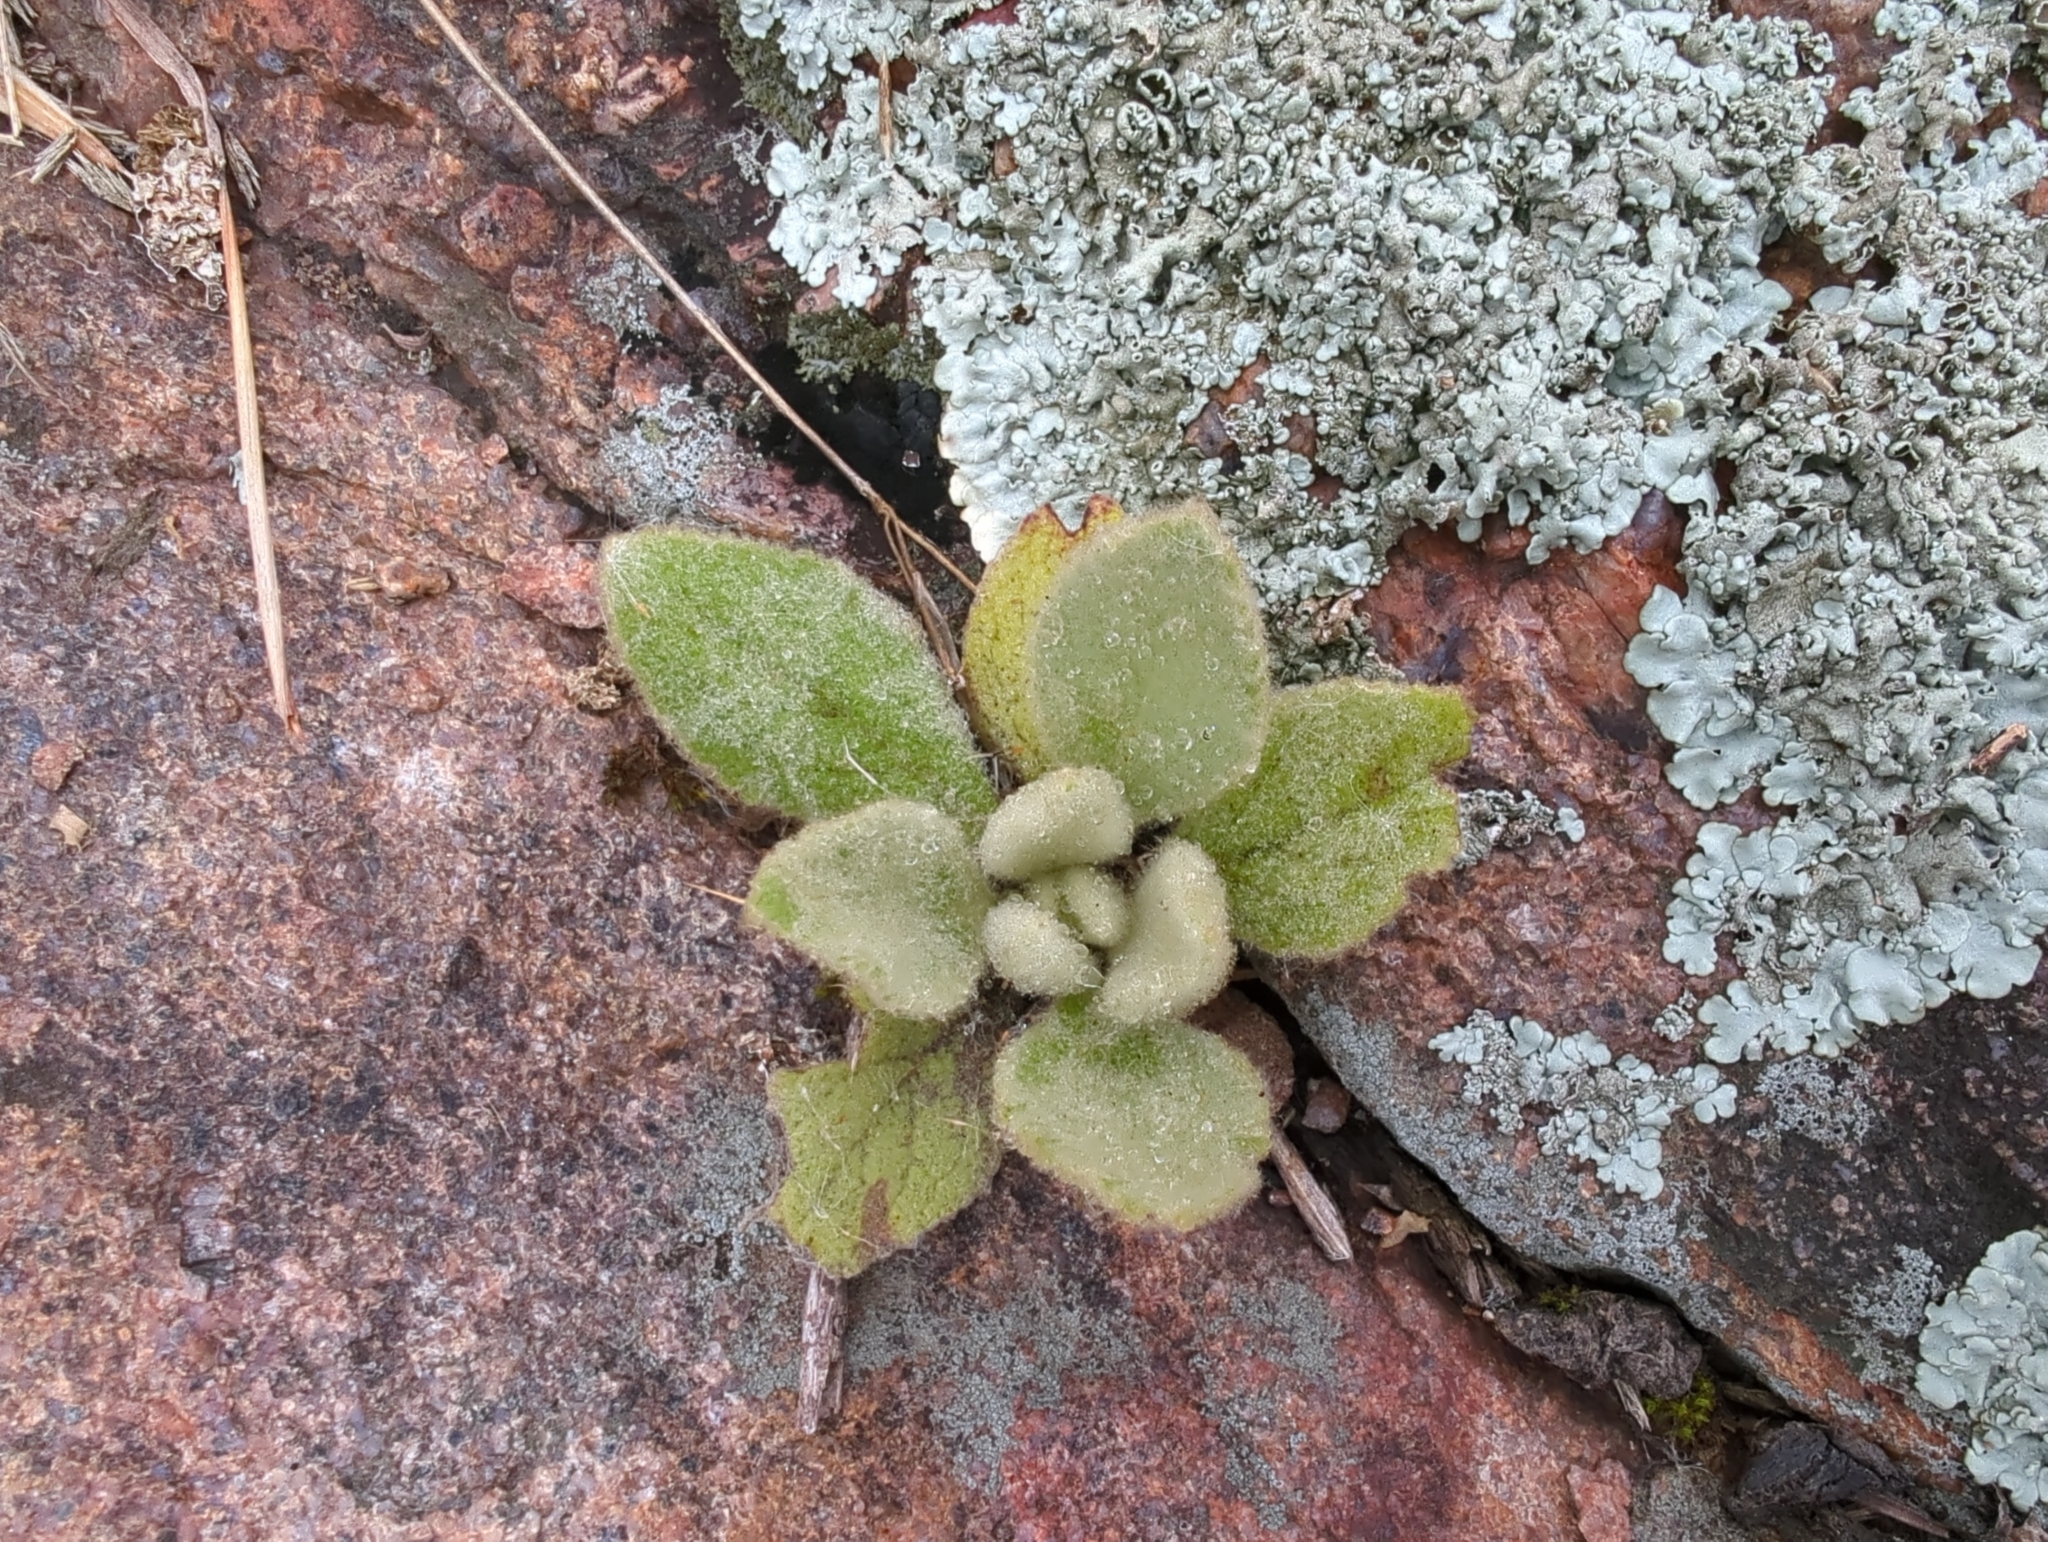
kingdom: Plantae
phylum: Tracheophyta
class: Magnoliopsida
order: Lamiales
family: Scrophulariaceae
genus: Verbascum
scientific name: Verbascum thapsus
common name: Common mullein
